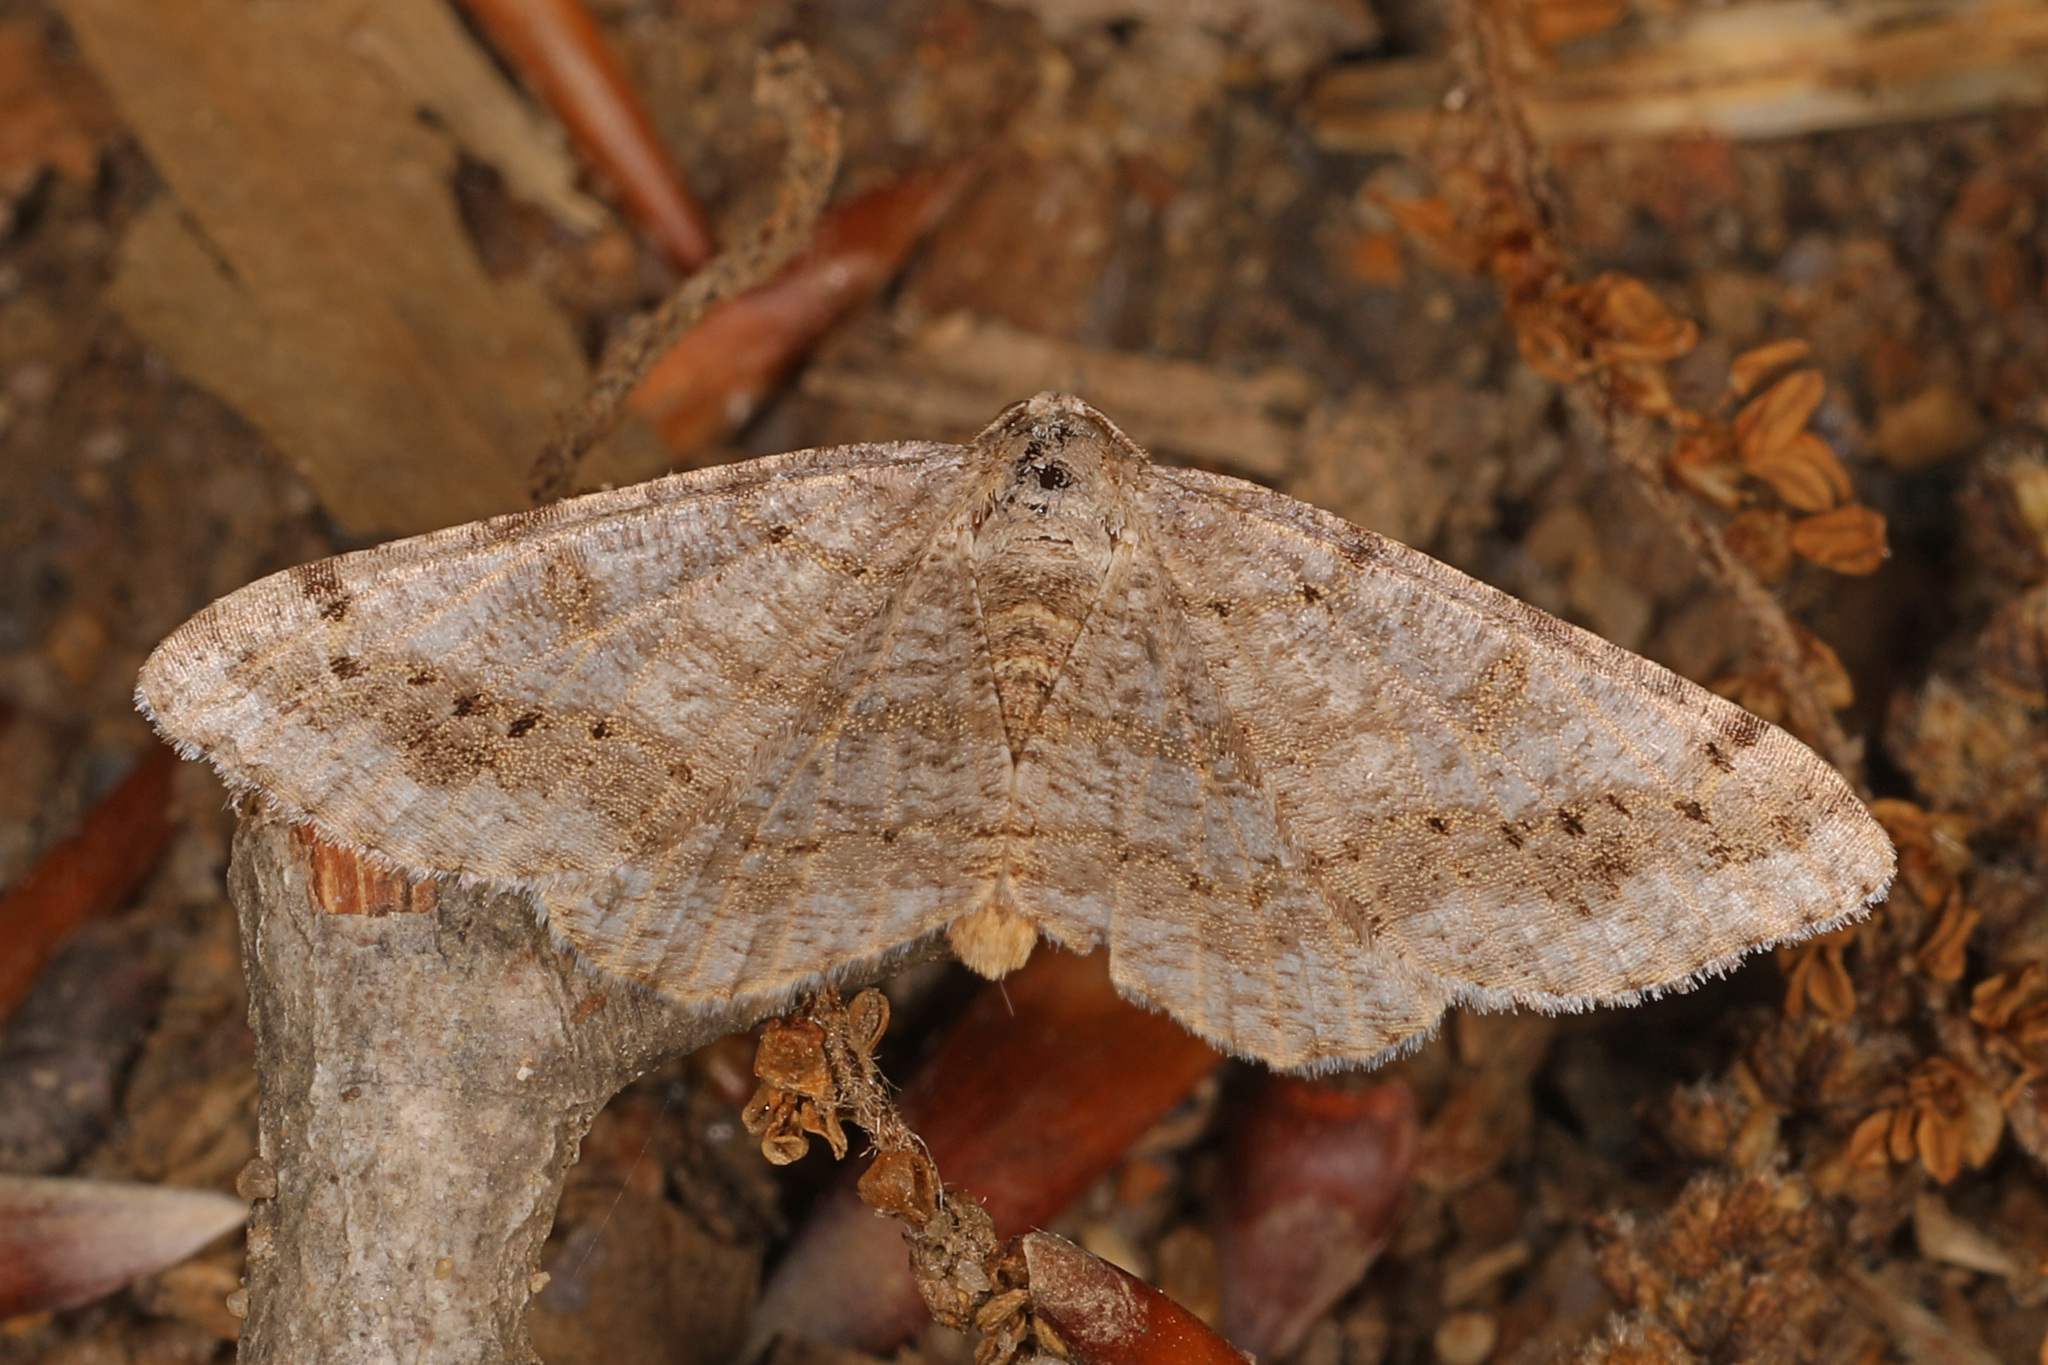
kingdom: Animalia
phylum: Arthropoda
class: Insecta
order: Lepidoptera
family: Geometridae
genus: Digrammia
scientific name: Digrammia ocellinata
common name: Faint-spotted angle
